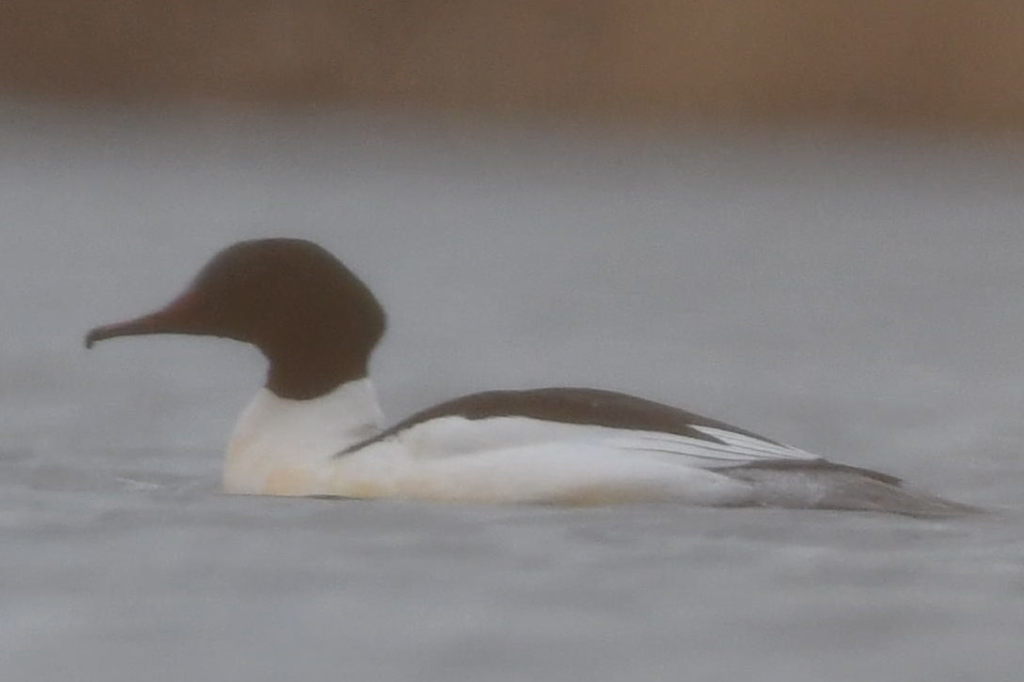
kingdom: Animalia
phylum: Chordata
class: Aves
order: Anseriformes
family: Anatidae
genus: Mergus
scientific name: Mergus merganser
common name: Common merganser
